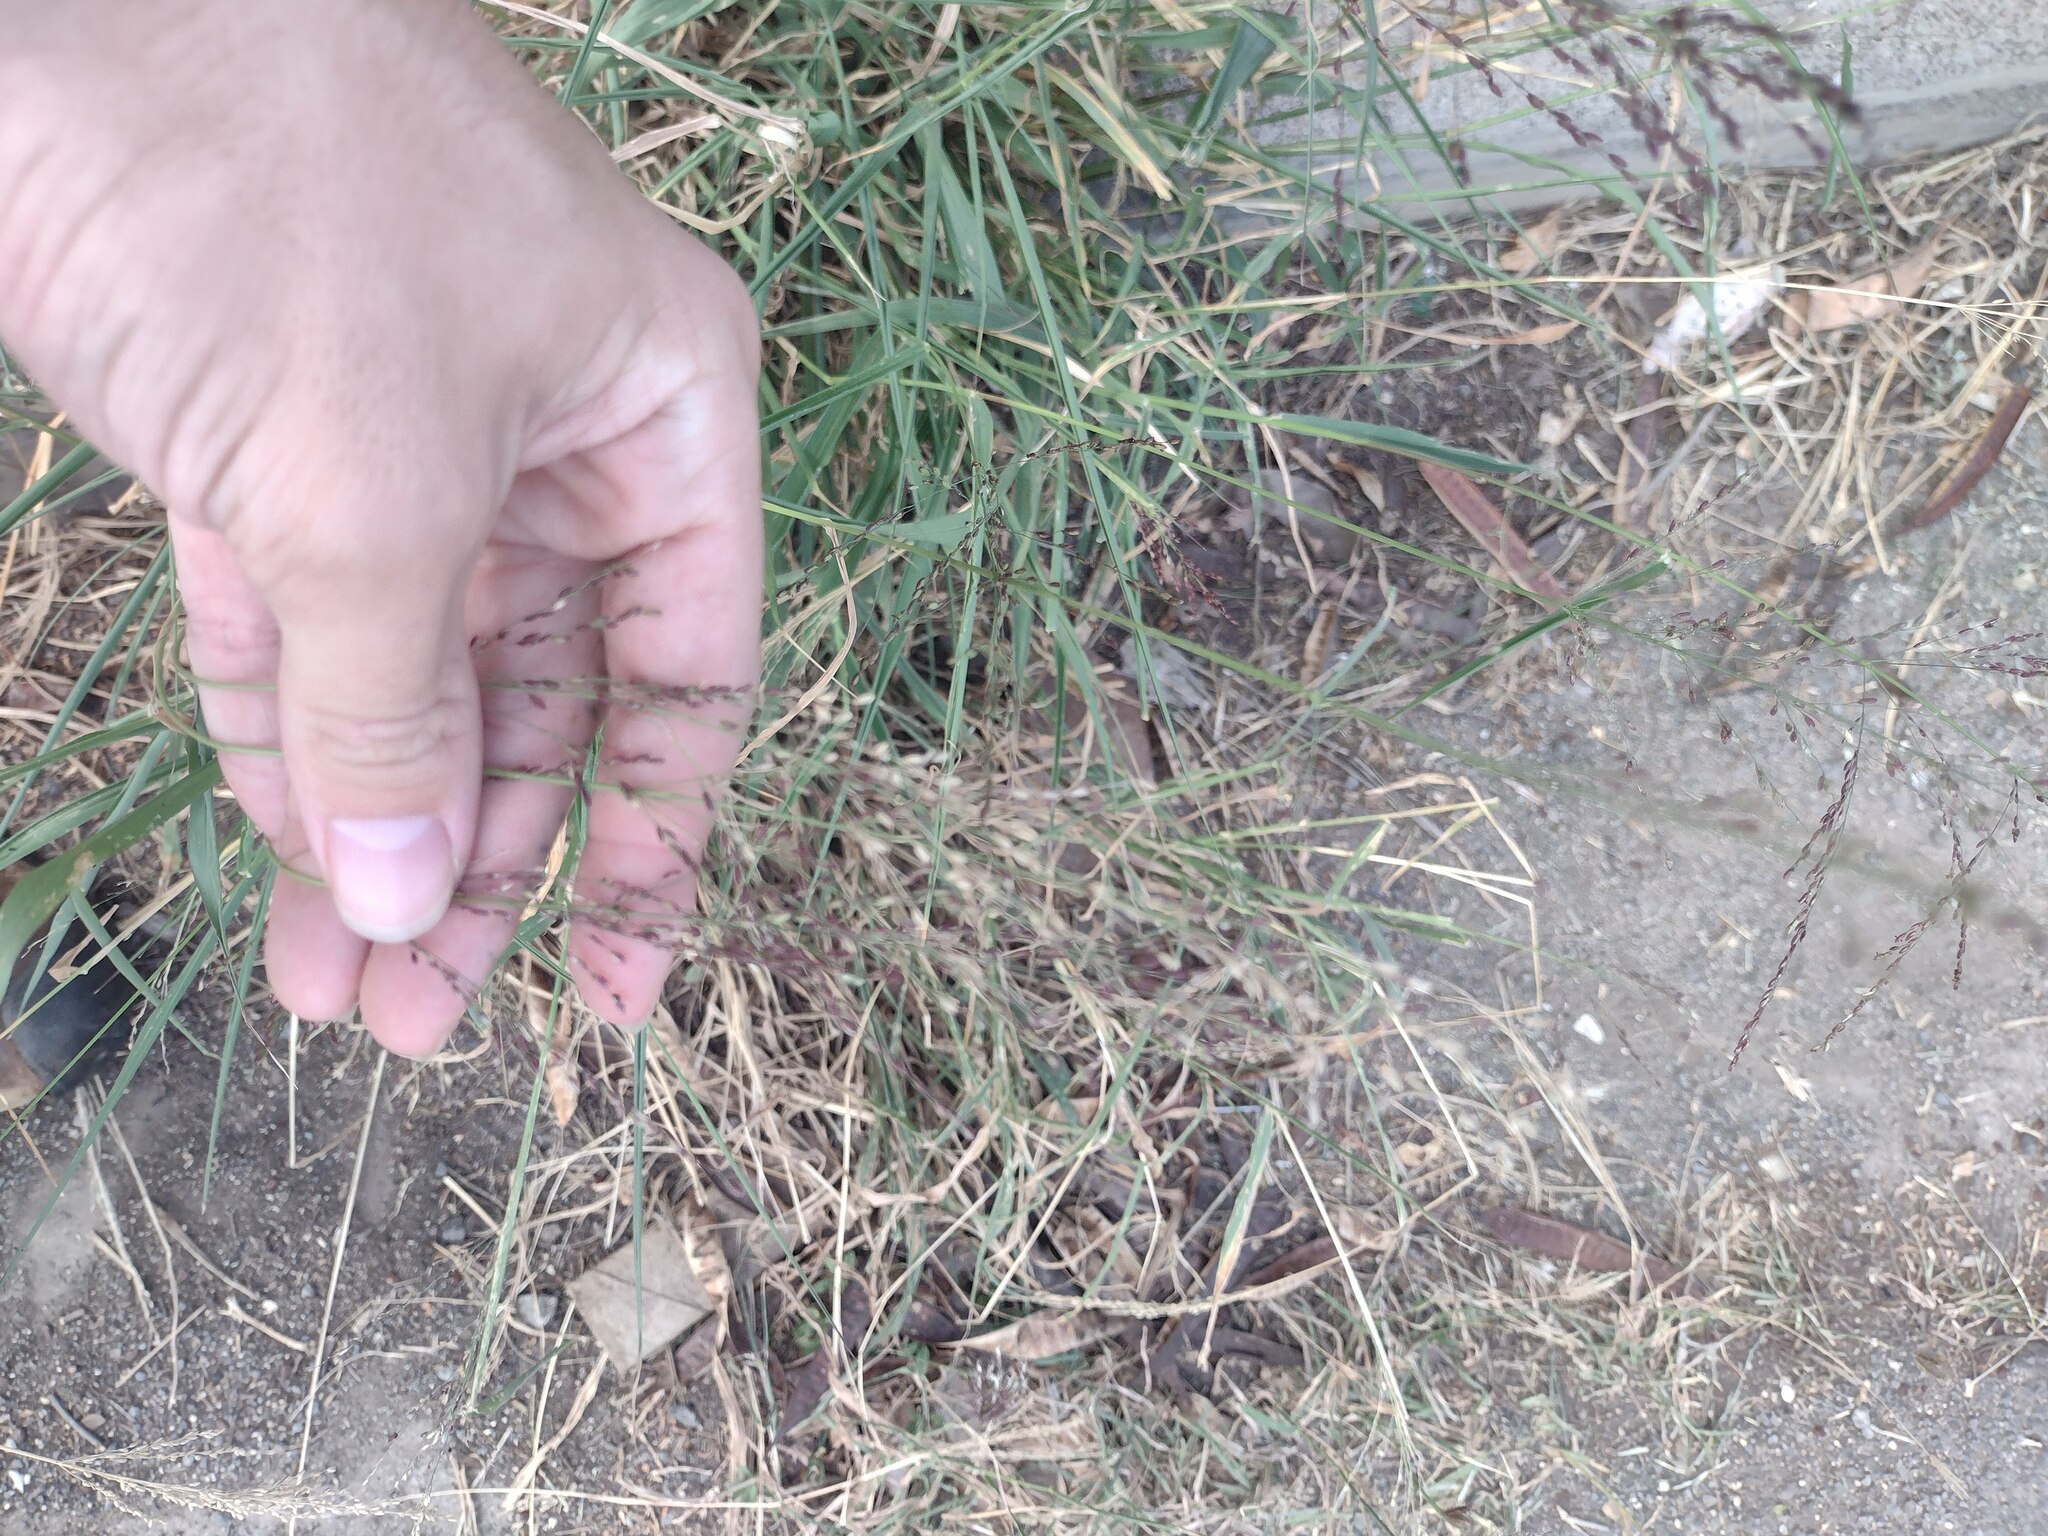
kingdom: Plantae
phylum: Tracheophyta
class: Liliopsida
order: Poales
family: Poaceae
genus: Megathyrsus
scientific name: Megathyrsus maximus
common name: Guineagrass
